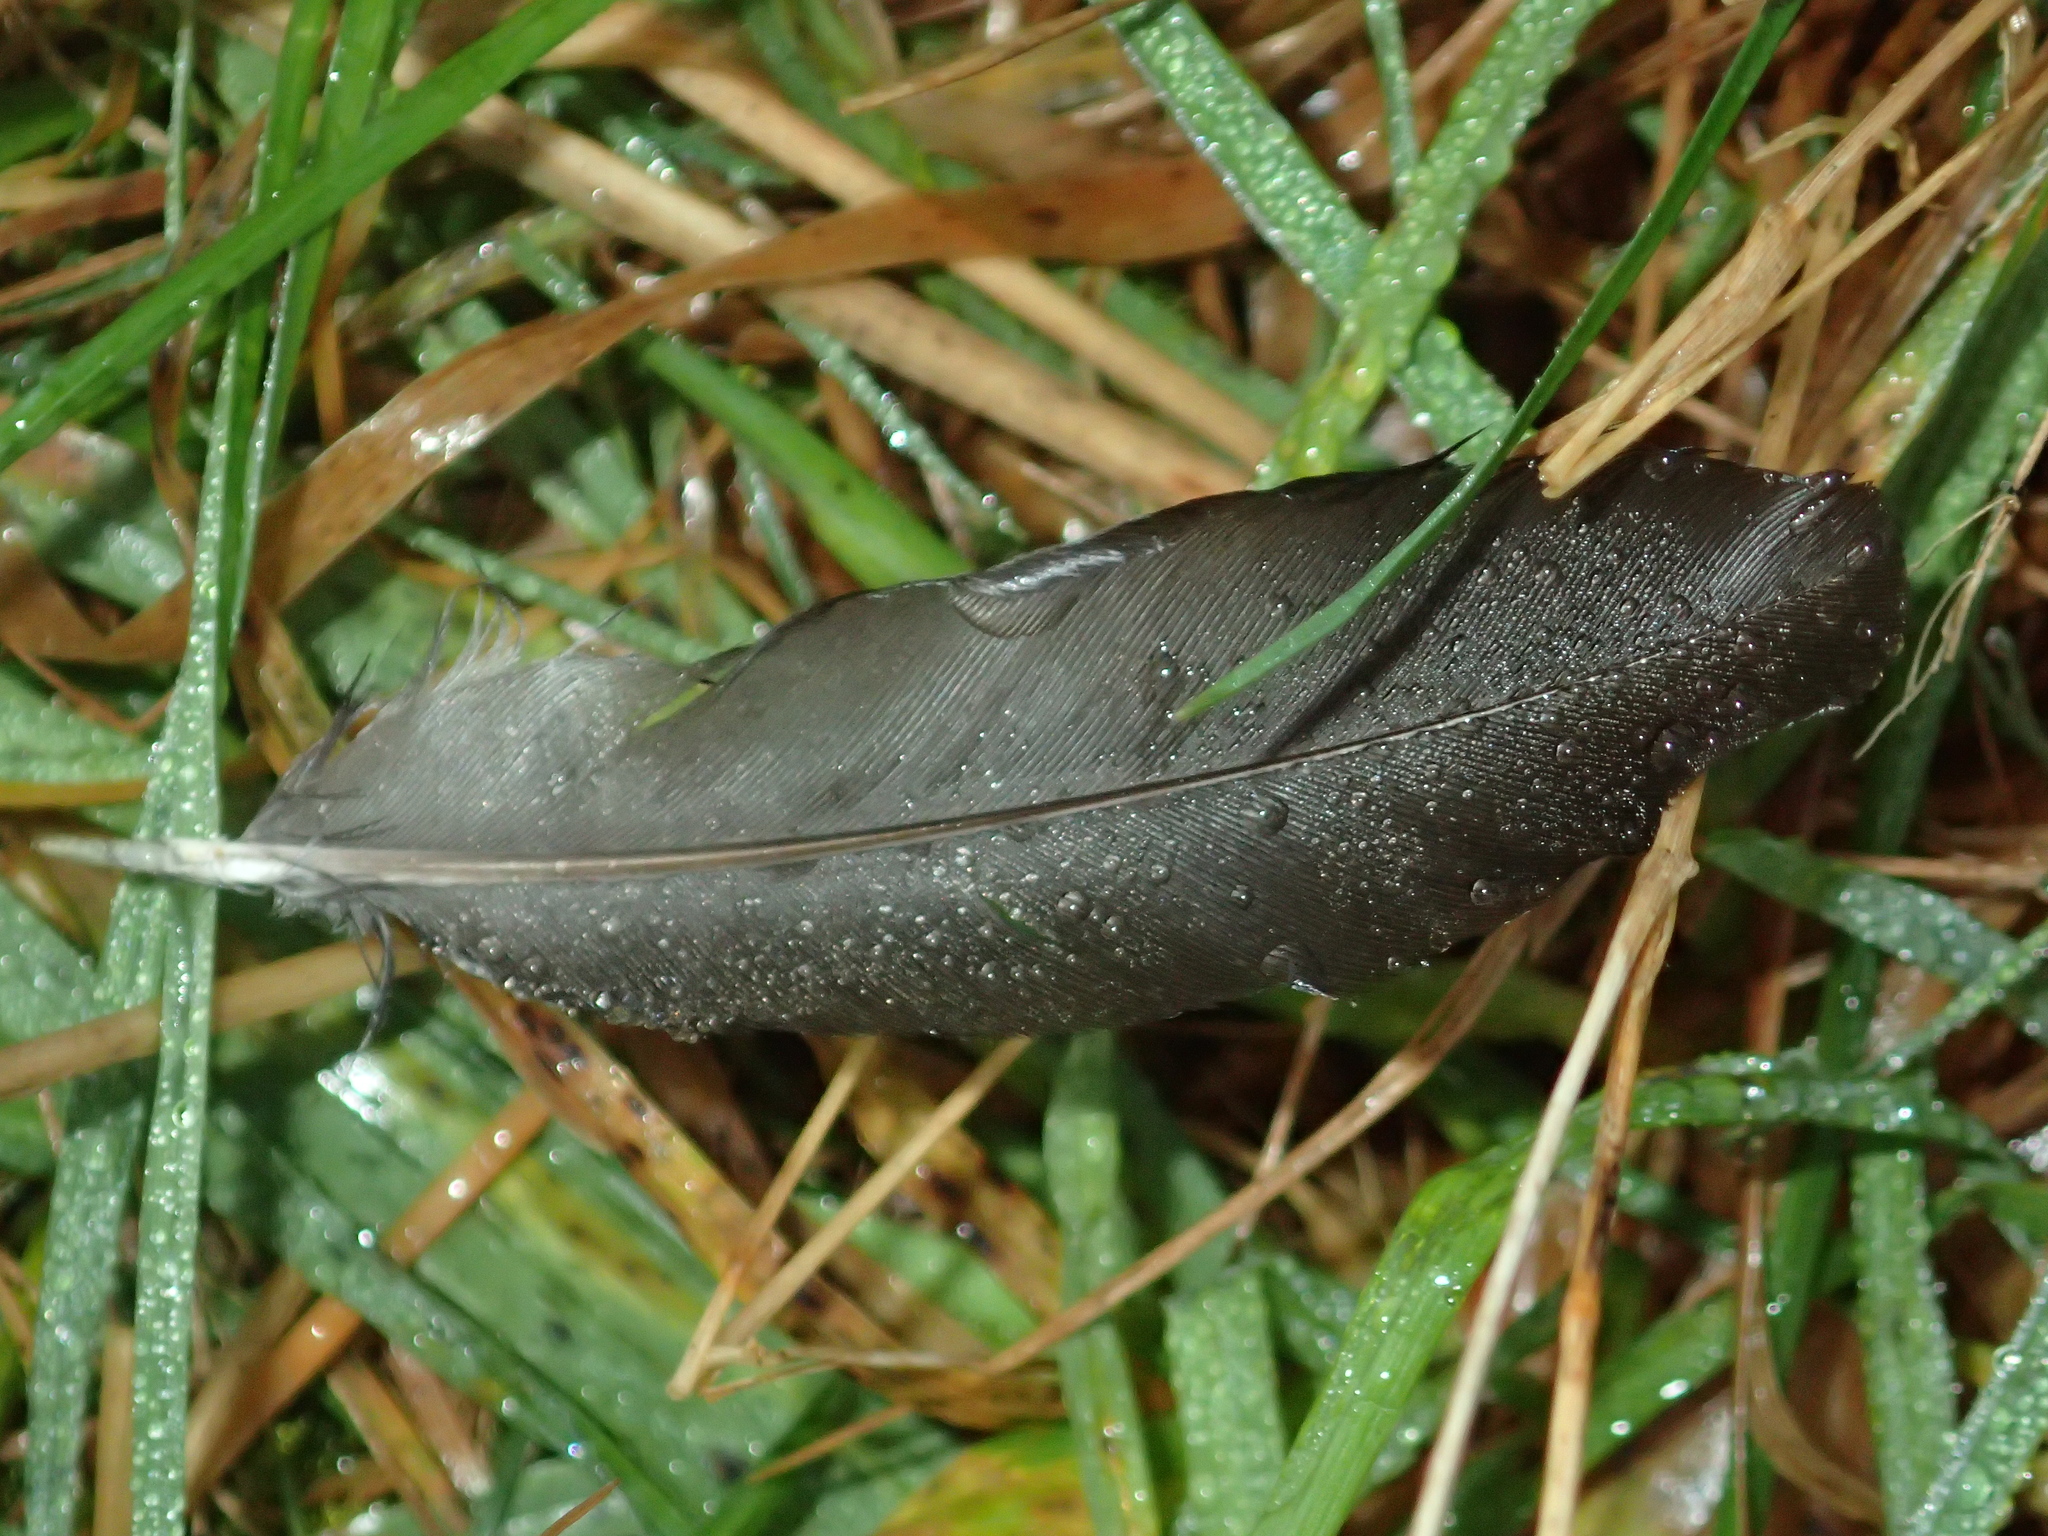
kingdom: Animalia
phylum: Chordata
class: Aves
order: Passeriformes
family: Turdidae
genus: Turdus
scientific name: Turdus merula
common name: Common blackbird
